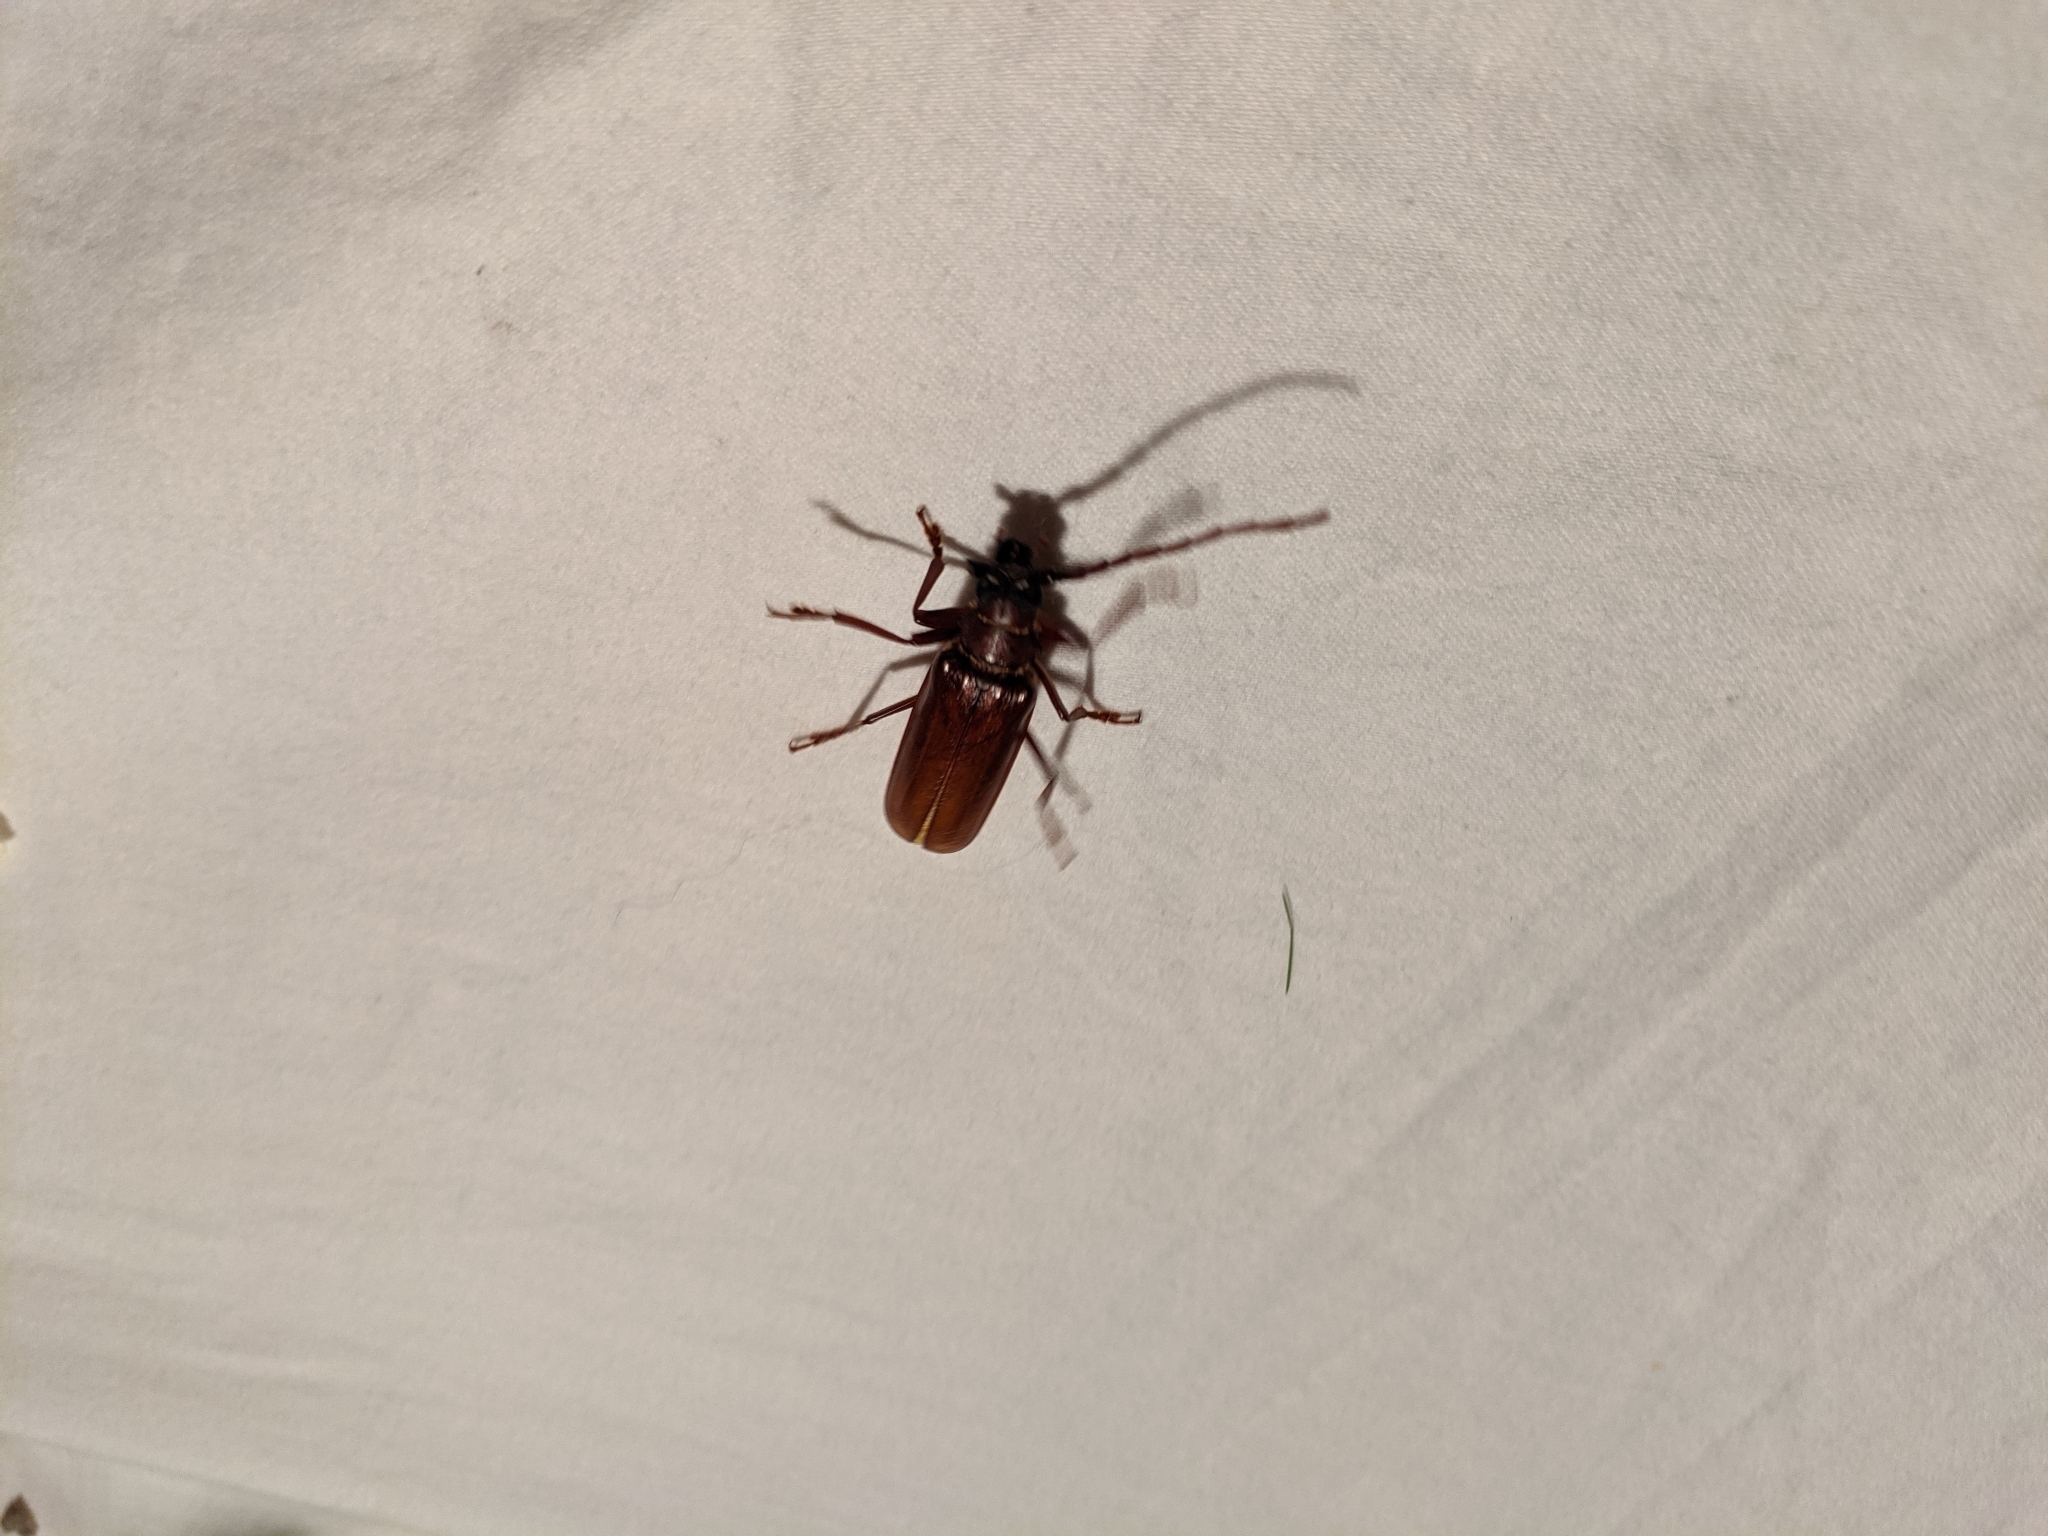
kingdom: Animalia
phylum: Arthropoda
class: Insecta
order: Coleoptera
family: Cerambycidae
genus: Orthosoma
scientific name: Orthosoma brunneum
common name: Brown prionid beetle
